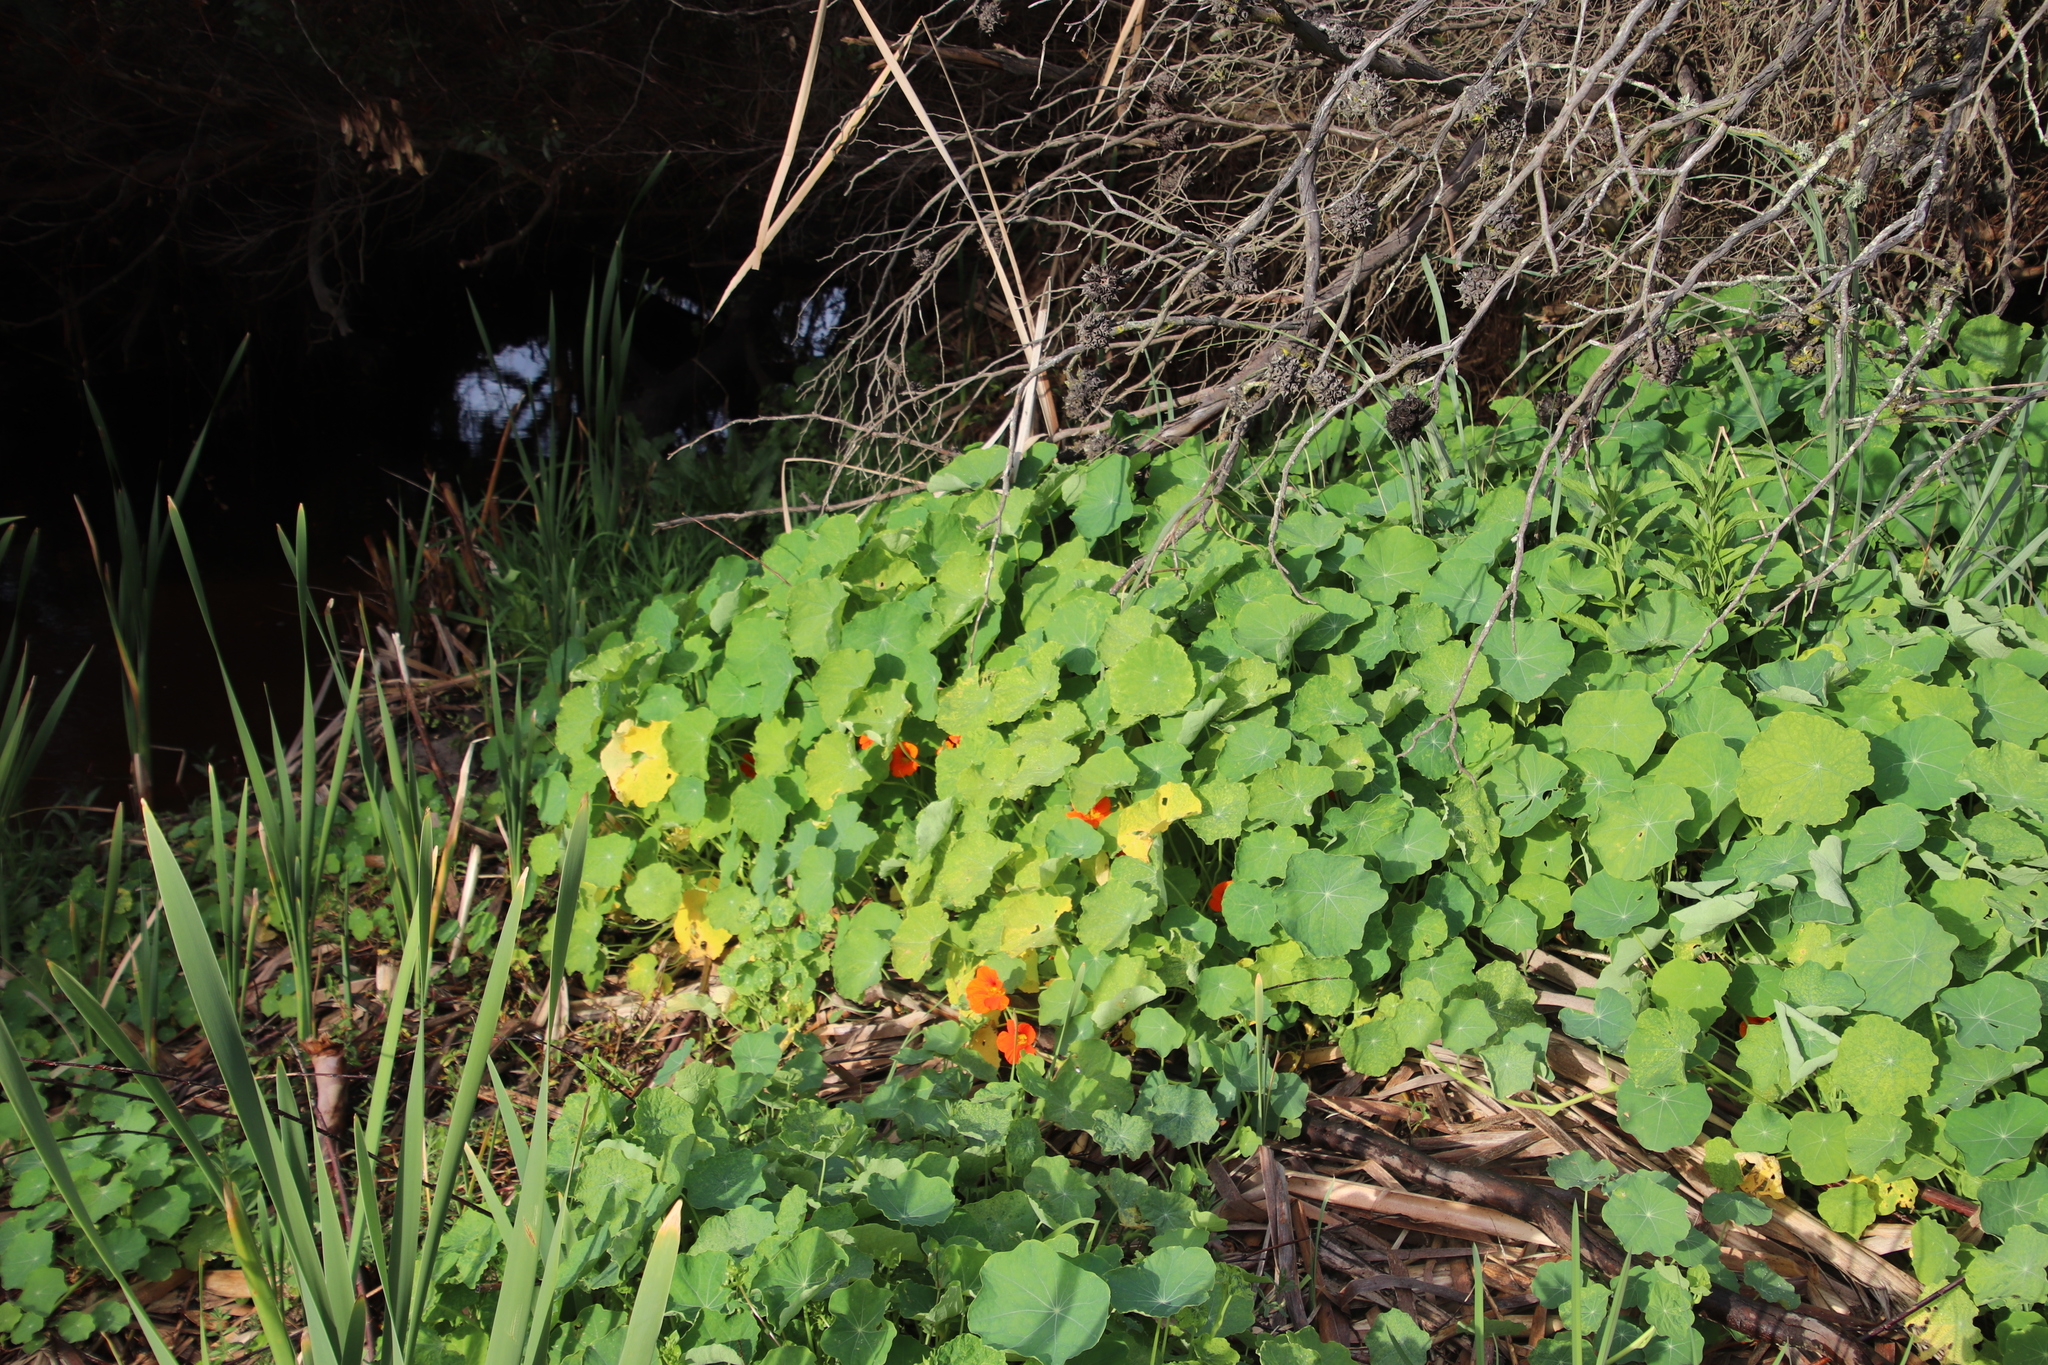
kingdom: Plantae
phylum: Tracheophyta
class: Magnoliopsida
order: Brassicales
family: Tropaeolaceae
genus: Tropaeolum
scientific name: Tropaeolum majus
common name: Nasturtium
